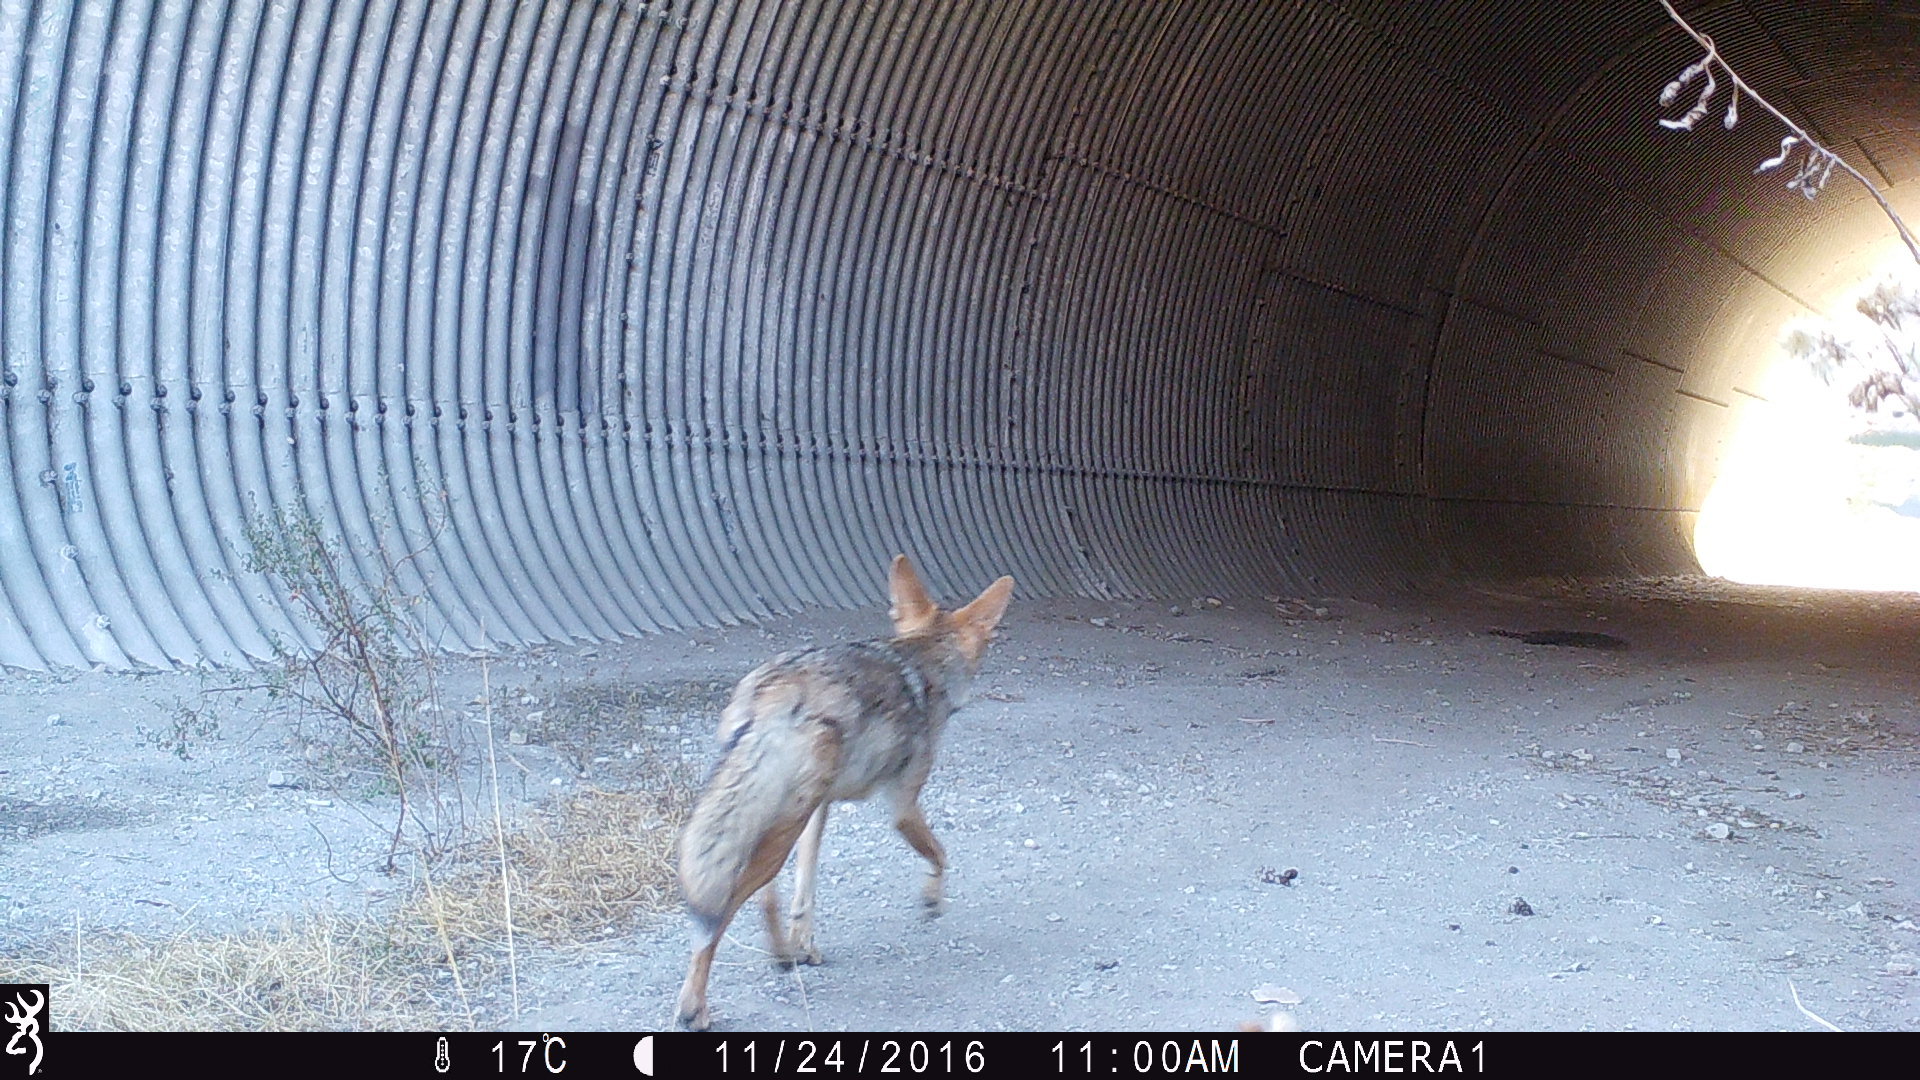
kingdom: Animalia
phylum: Chordata
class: Mammalia
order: Carnivora
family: Canidae
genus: Canis
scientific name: Canis latrans
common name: Coyote
